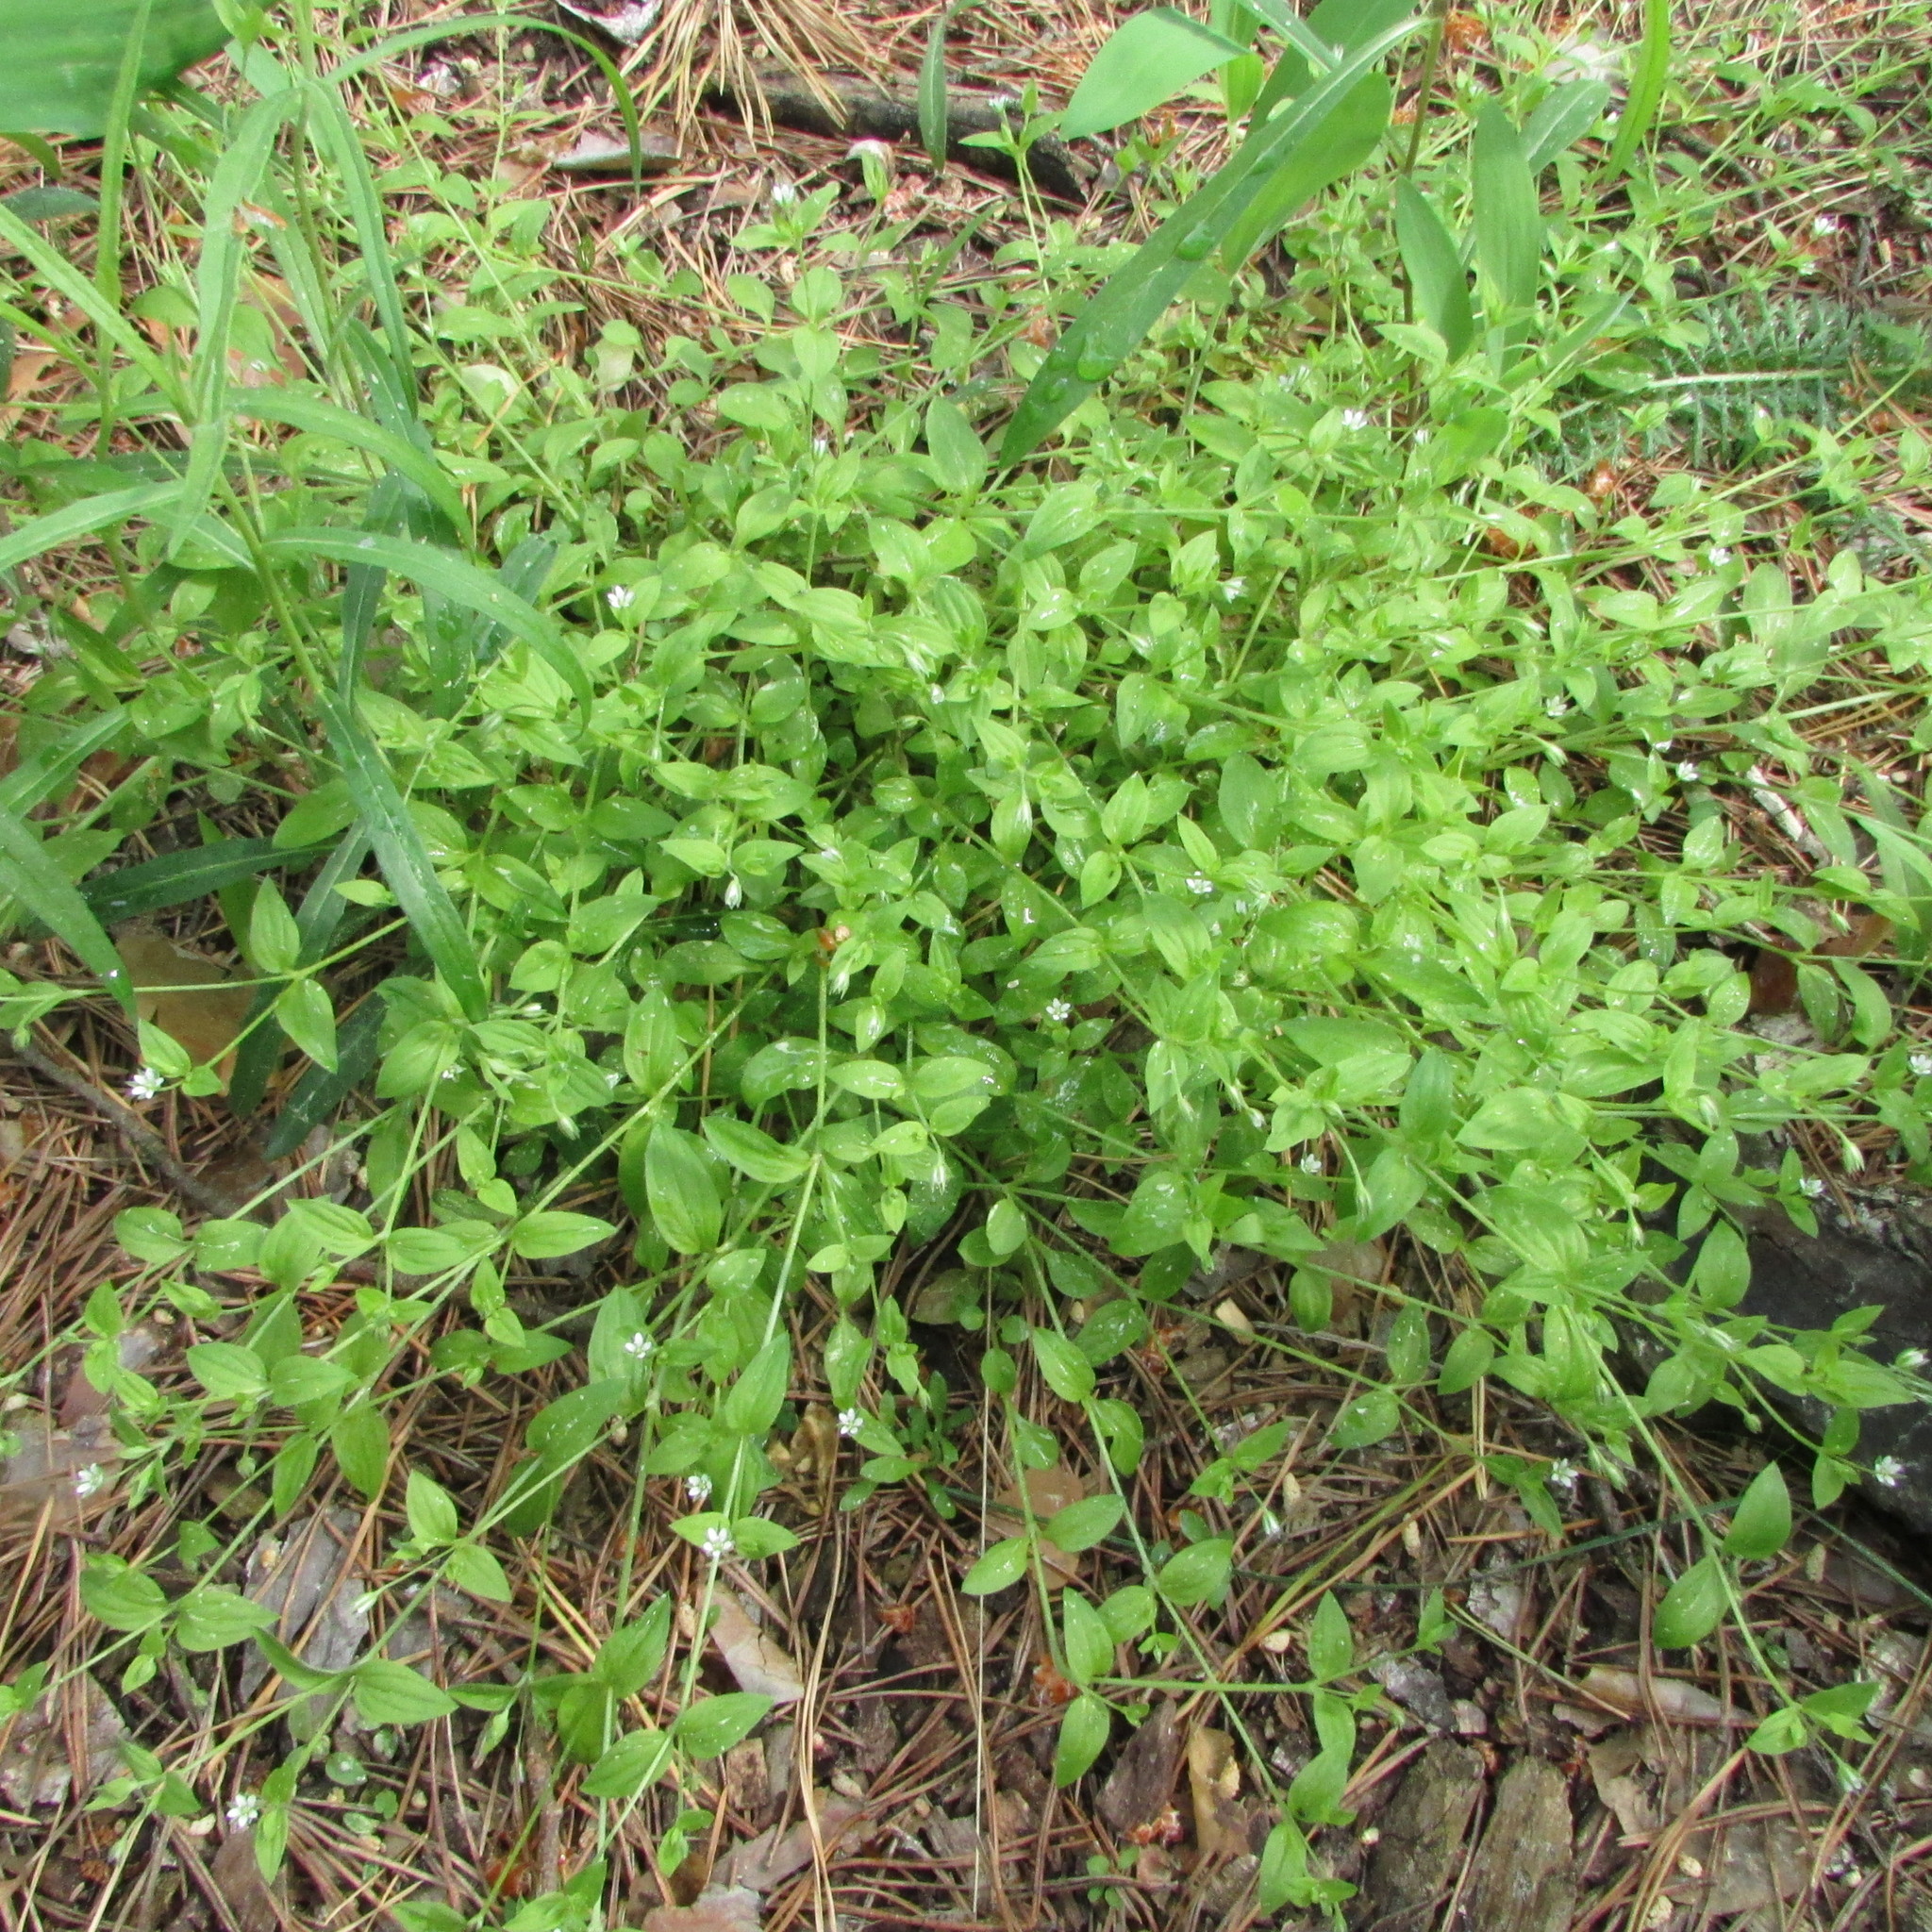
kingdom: Plantae
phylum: Tracheophyta
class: Magnoliopsida
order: Caryophyllales
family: Caryophyllaceae
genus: Moehringia
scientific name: Moehringia trinervia
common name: Three-nerved sandwort
